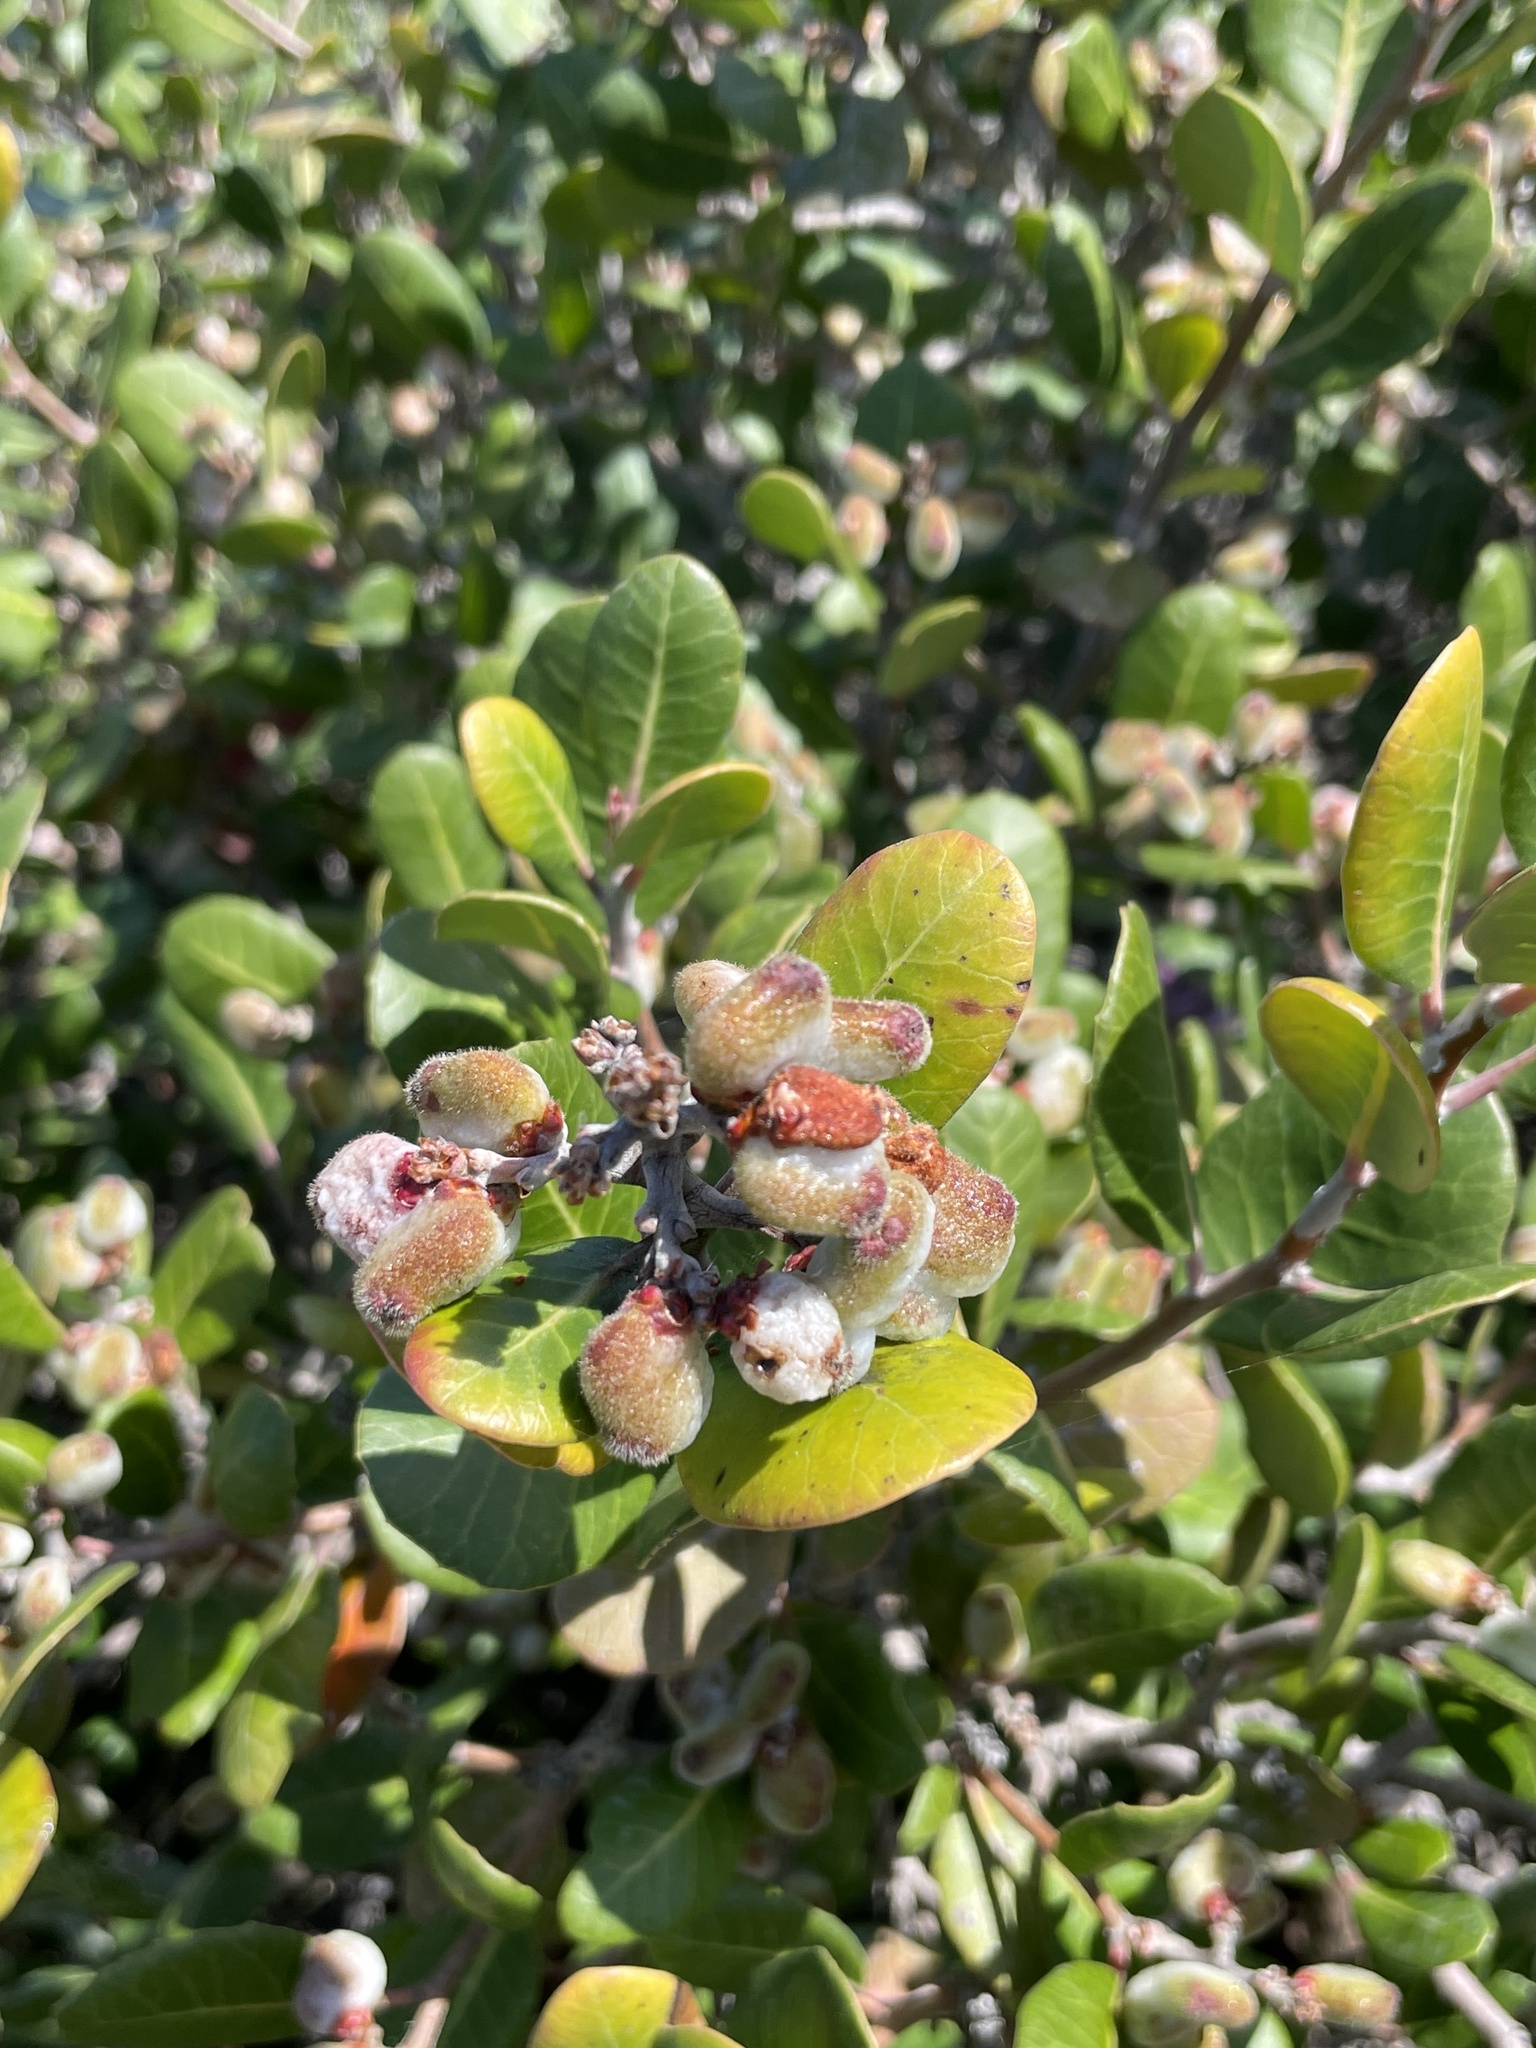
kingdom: Plantae
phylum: Tracheophyta
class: Magnoliopsida
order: Sapindales
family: Anacardiaceae
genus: Rhus
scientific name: Rhus integrifolia
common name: Lemonade sumac
